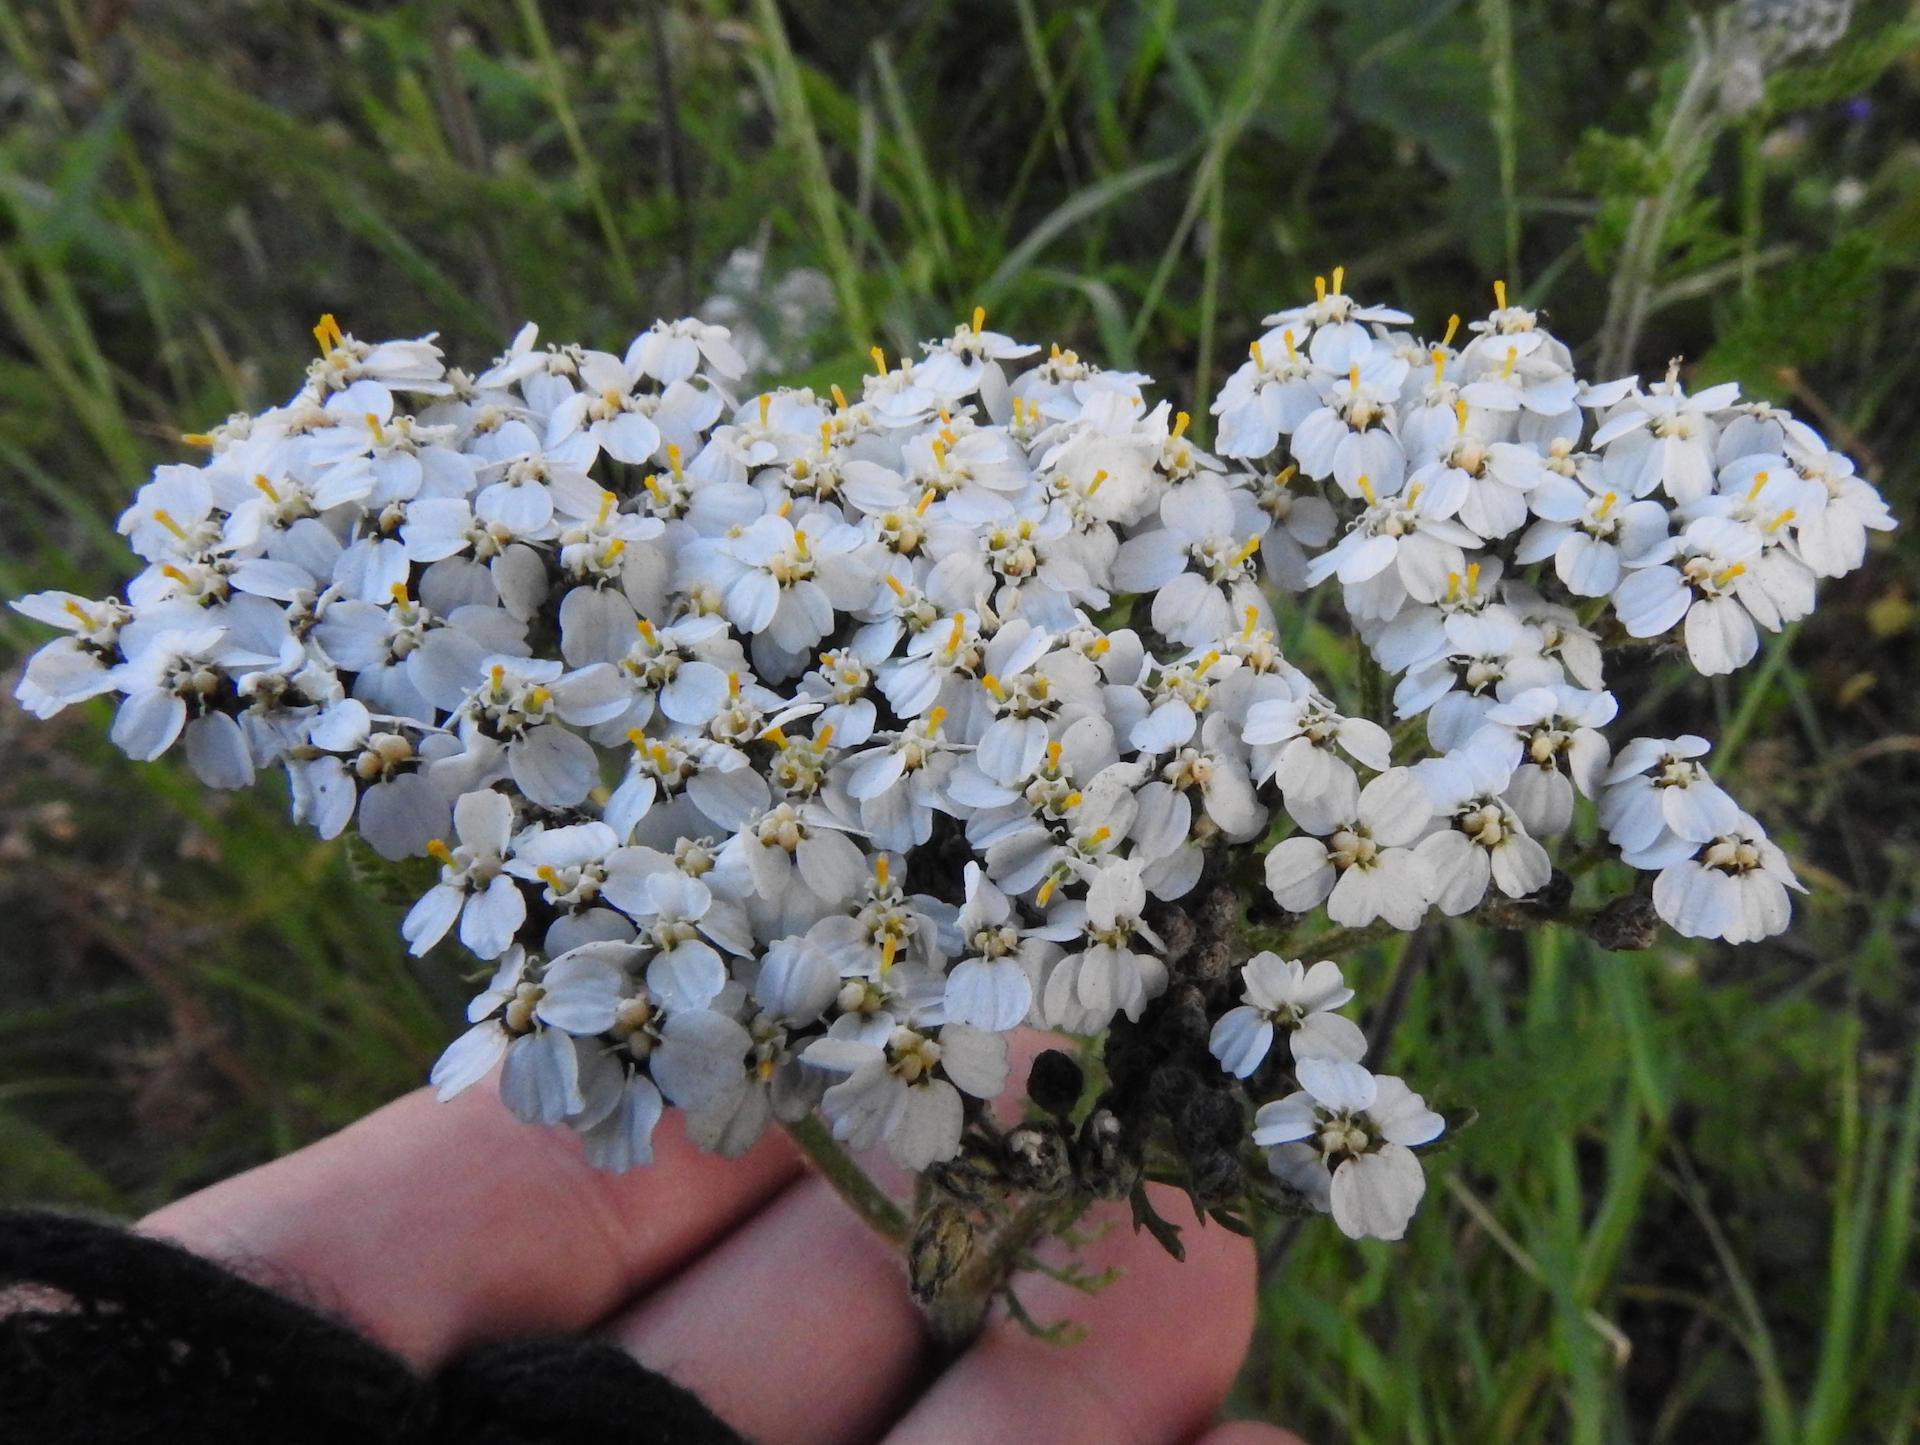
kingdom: Plantae
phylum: Tracheophyta
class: Magnoliopsida
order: Asterales
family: Asteraceae
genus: Achillea
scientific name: Achillea millefolium
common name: Yarrow
